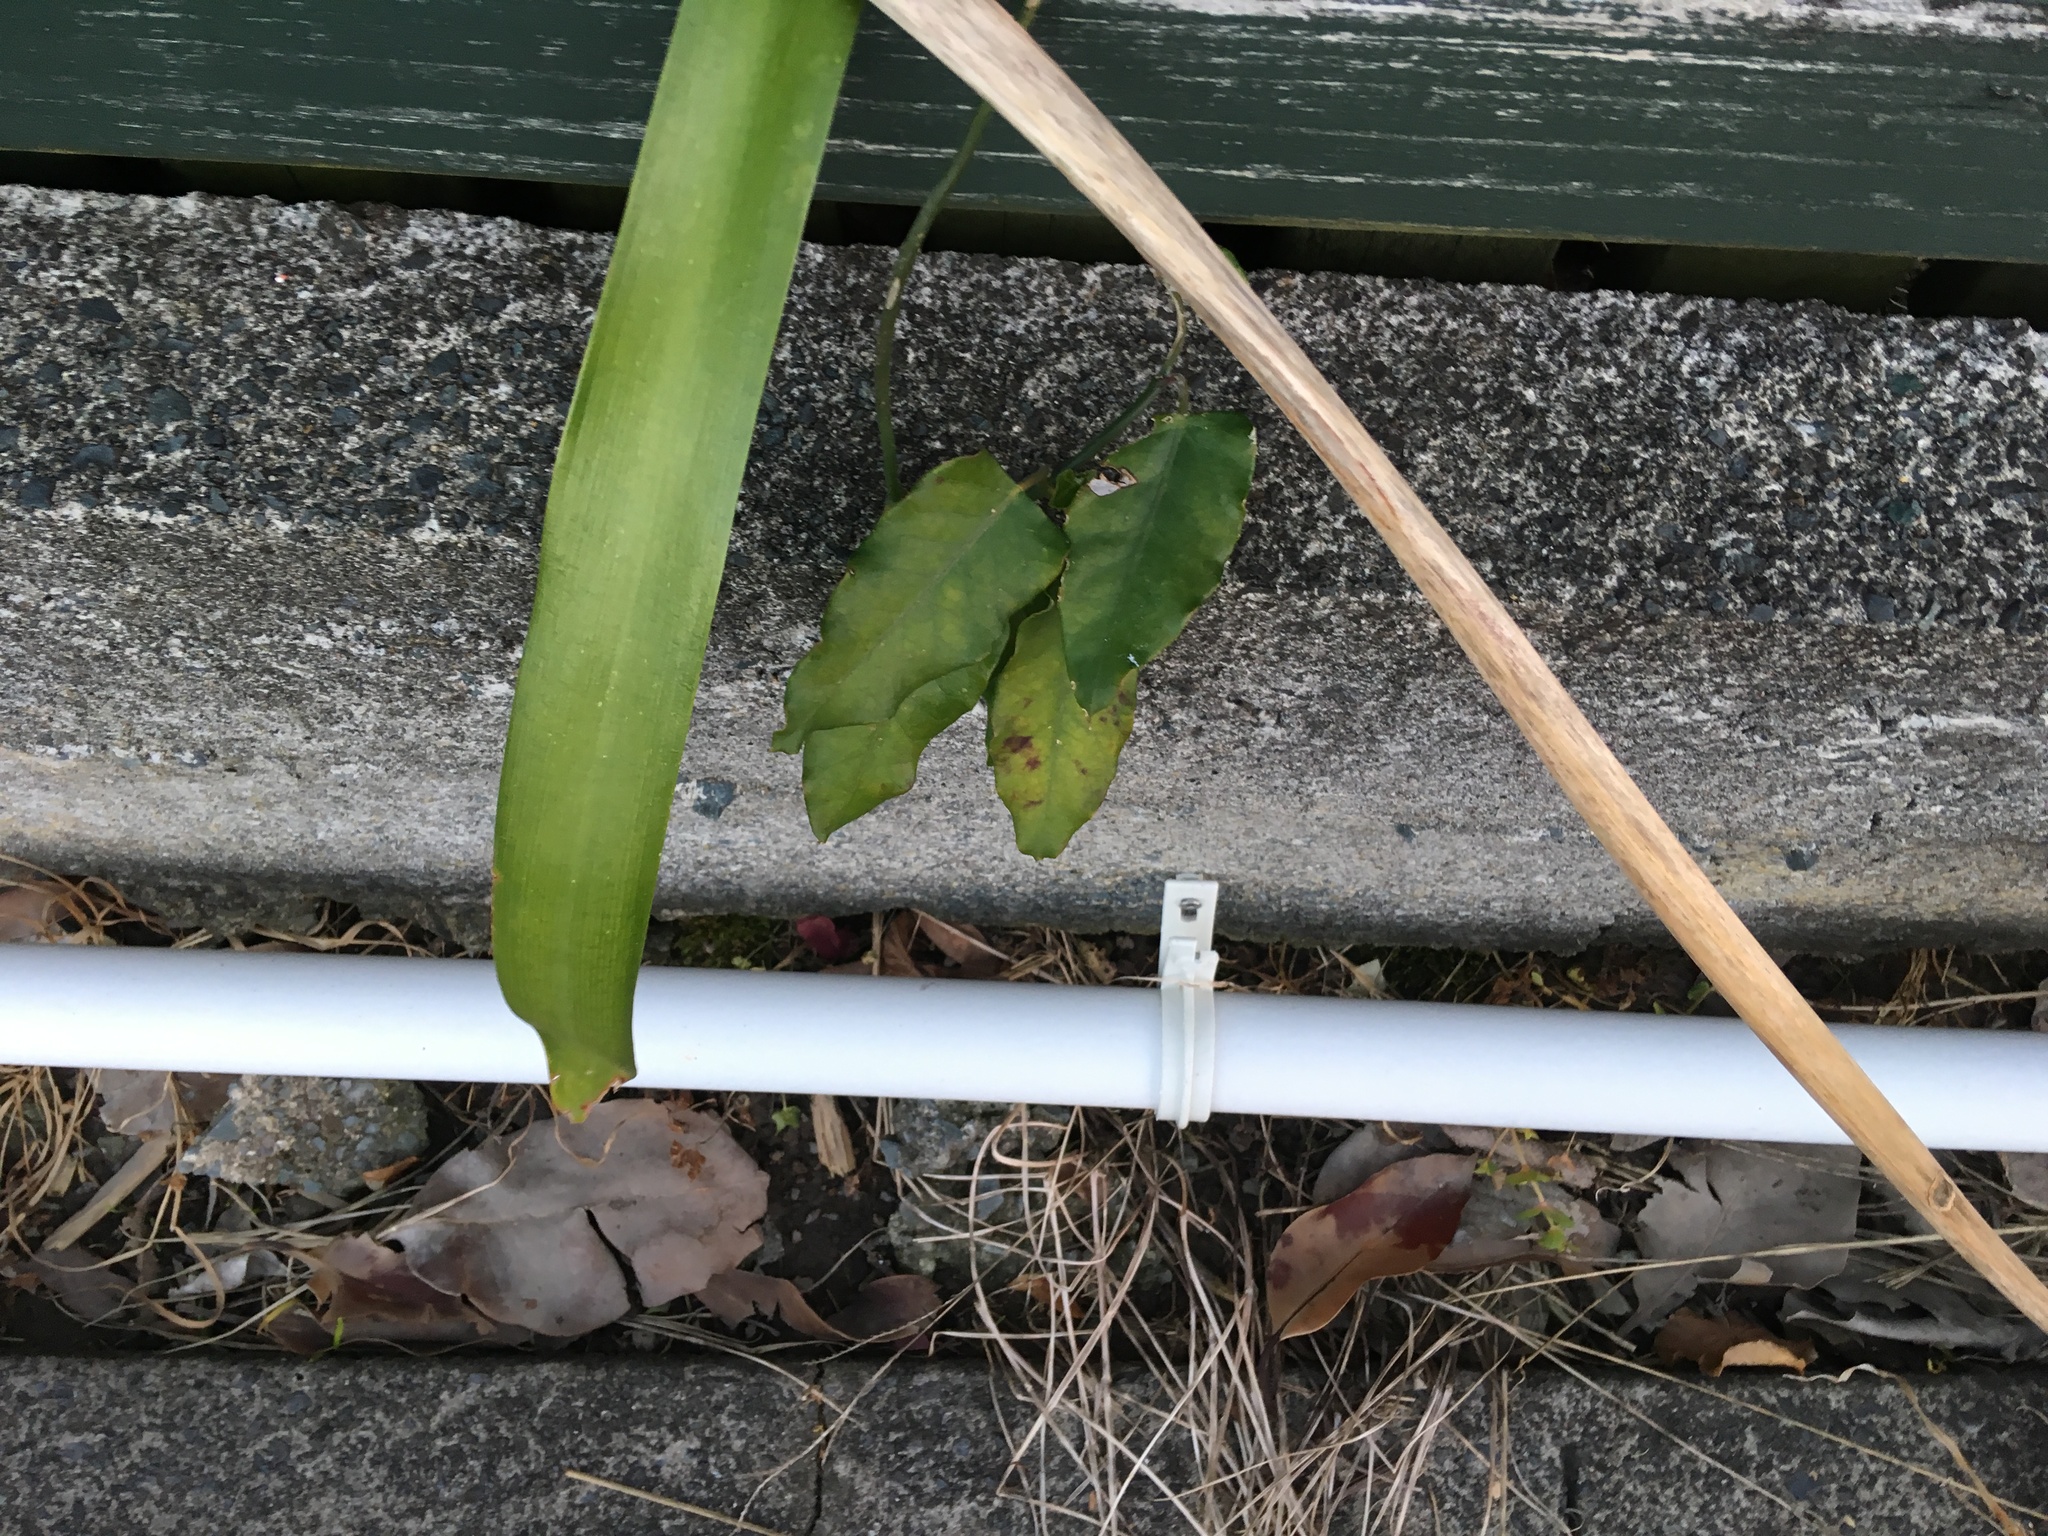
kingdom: Plantae
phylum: Tracheophyta
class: Magnoliopsida
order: Gentianales
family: Apocynaceae
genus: Araujia
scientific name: Araujia sericifera
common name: White bladderflower
